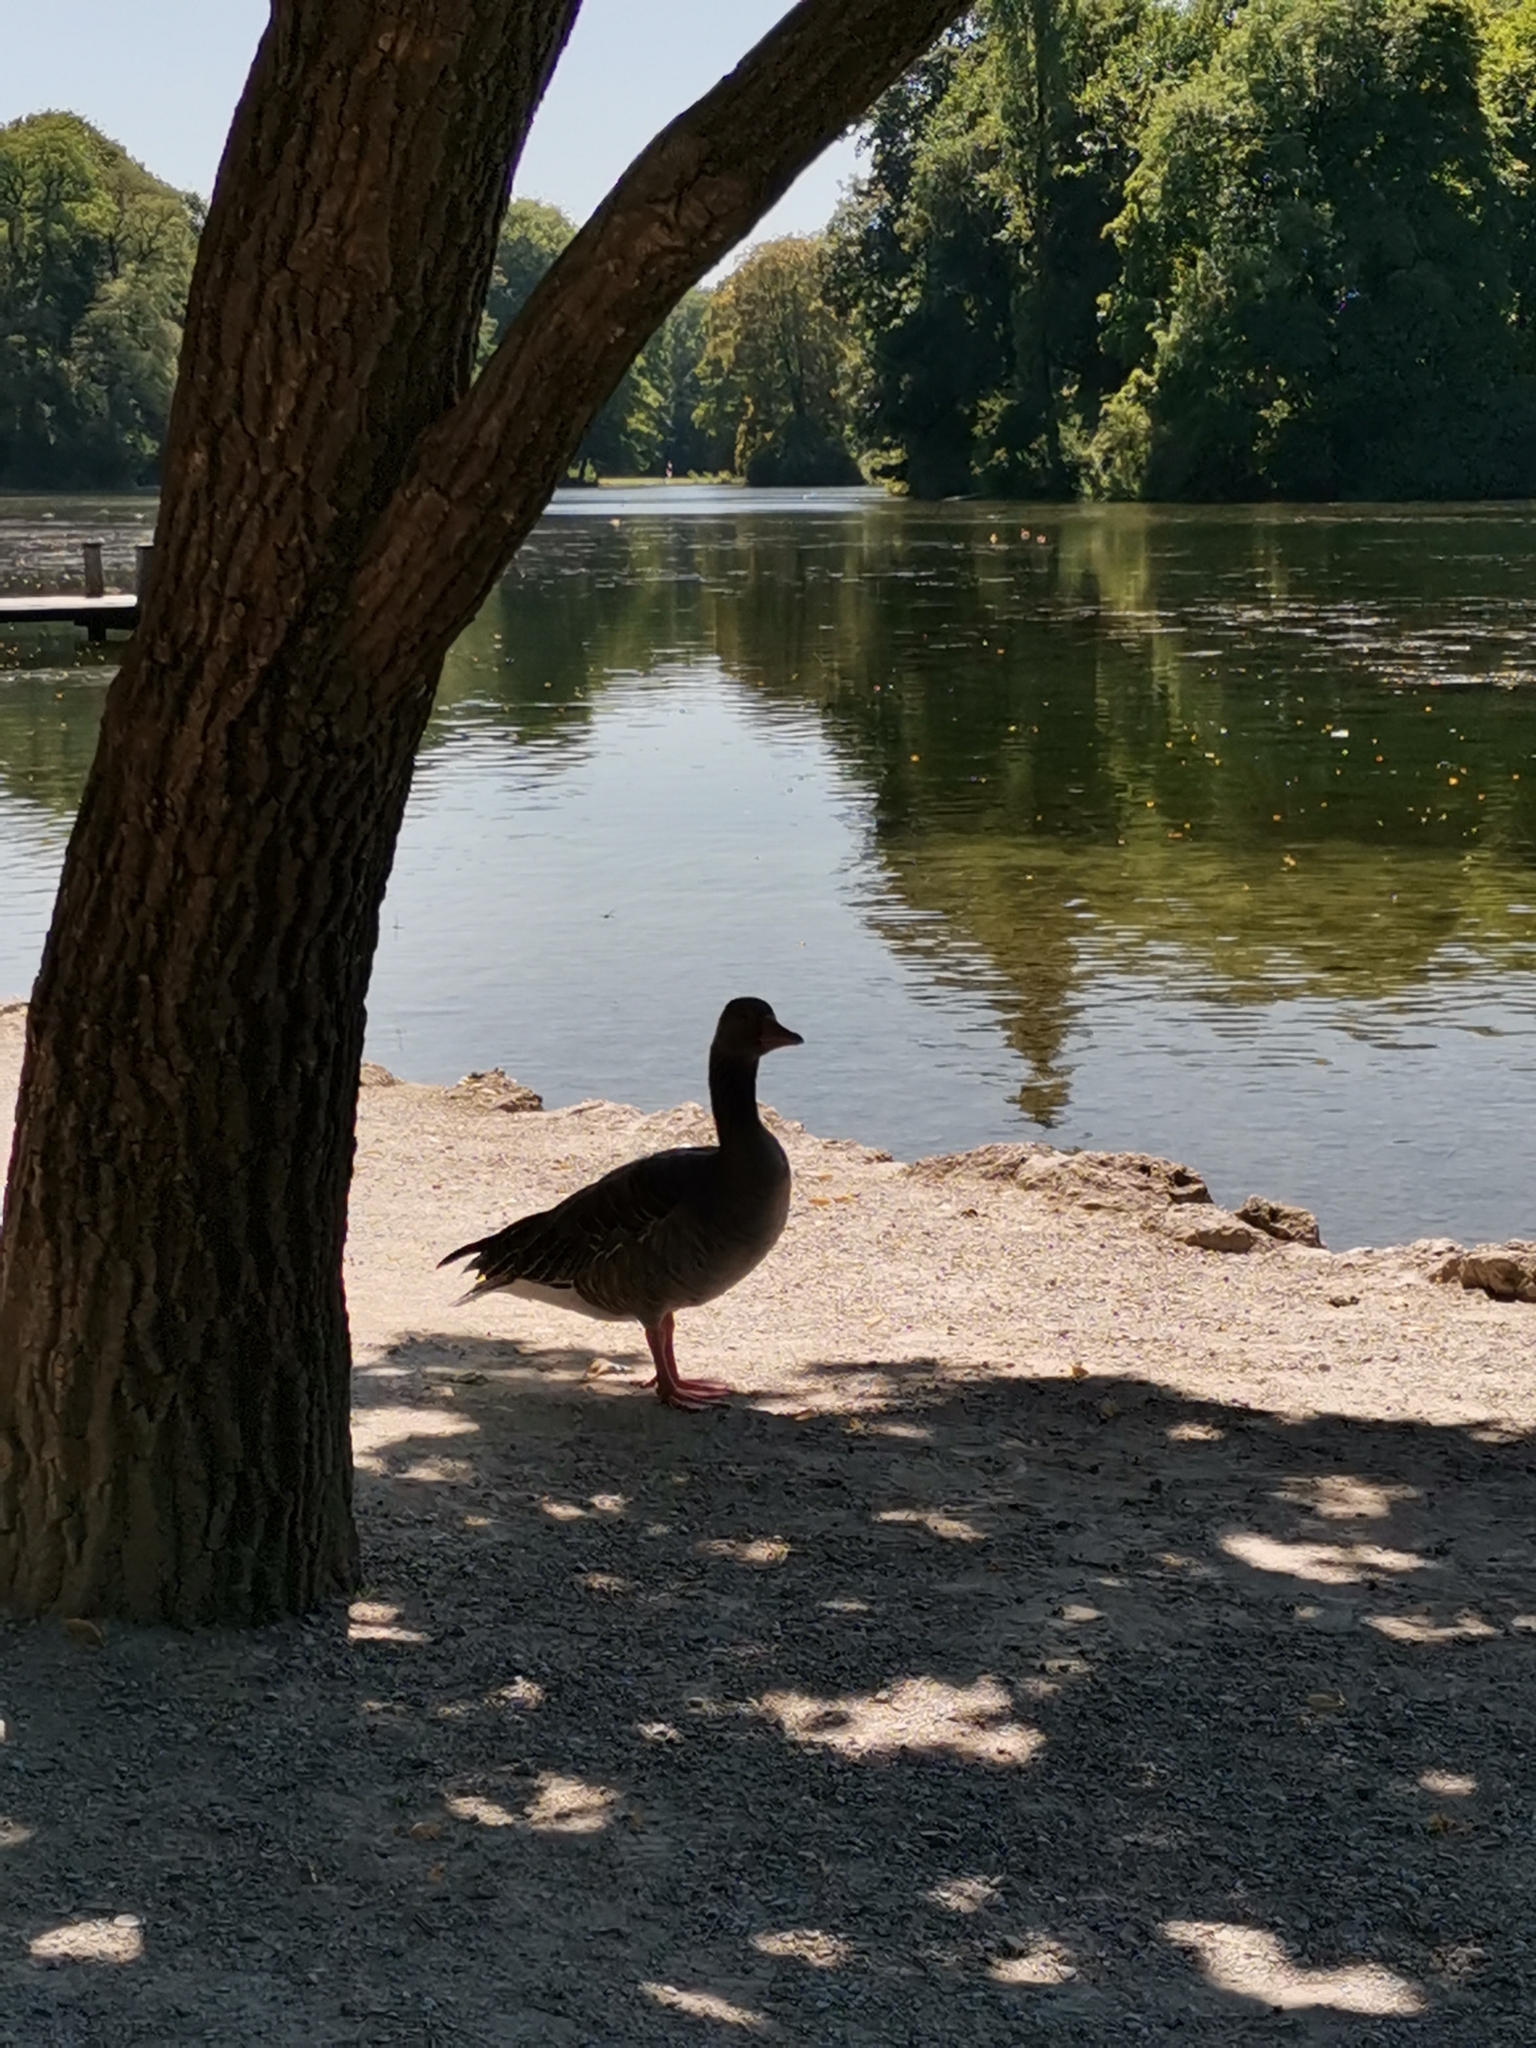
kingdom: Animalia
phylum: Chordata
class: Aves
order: Anseriformes
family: Anatidae
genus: Anser
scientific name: Anser anser
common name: Greylag goose
